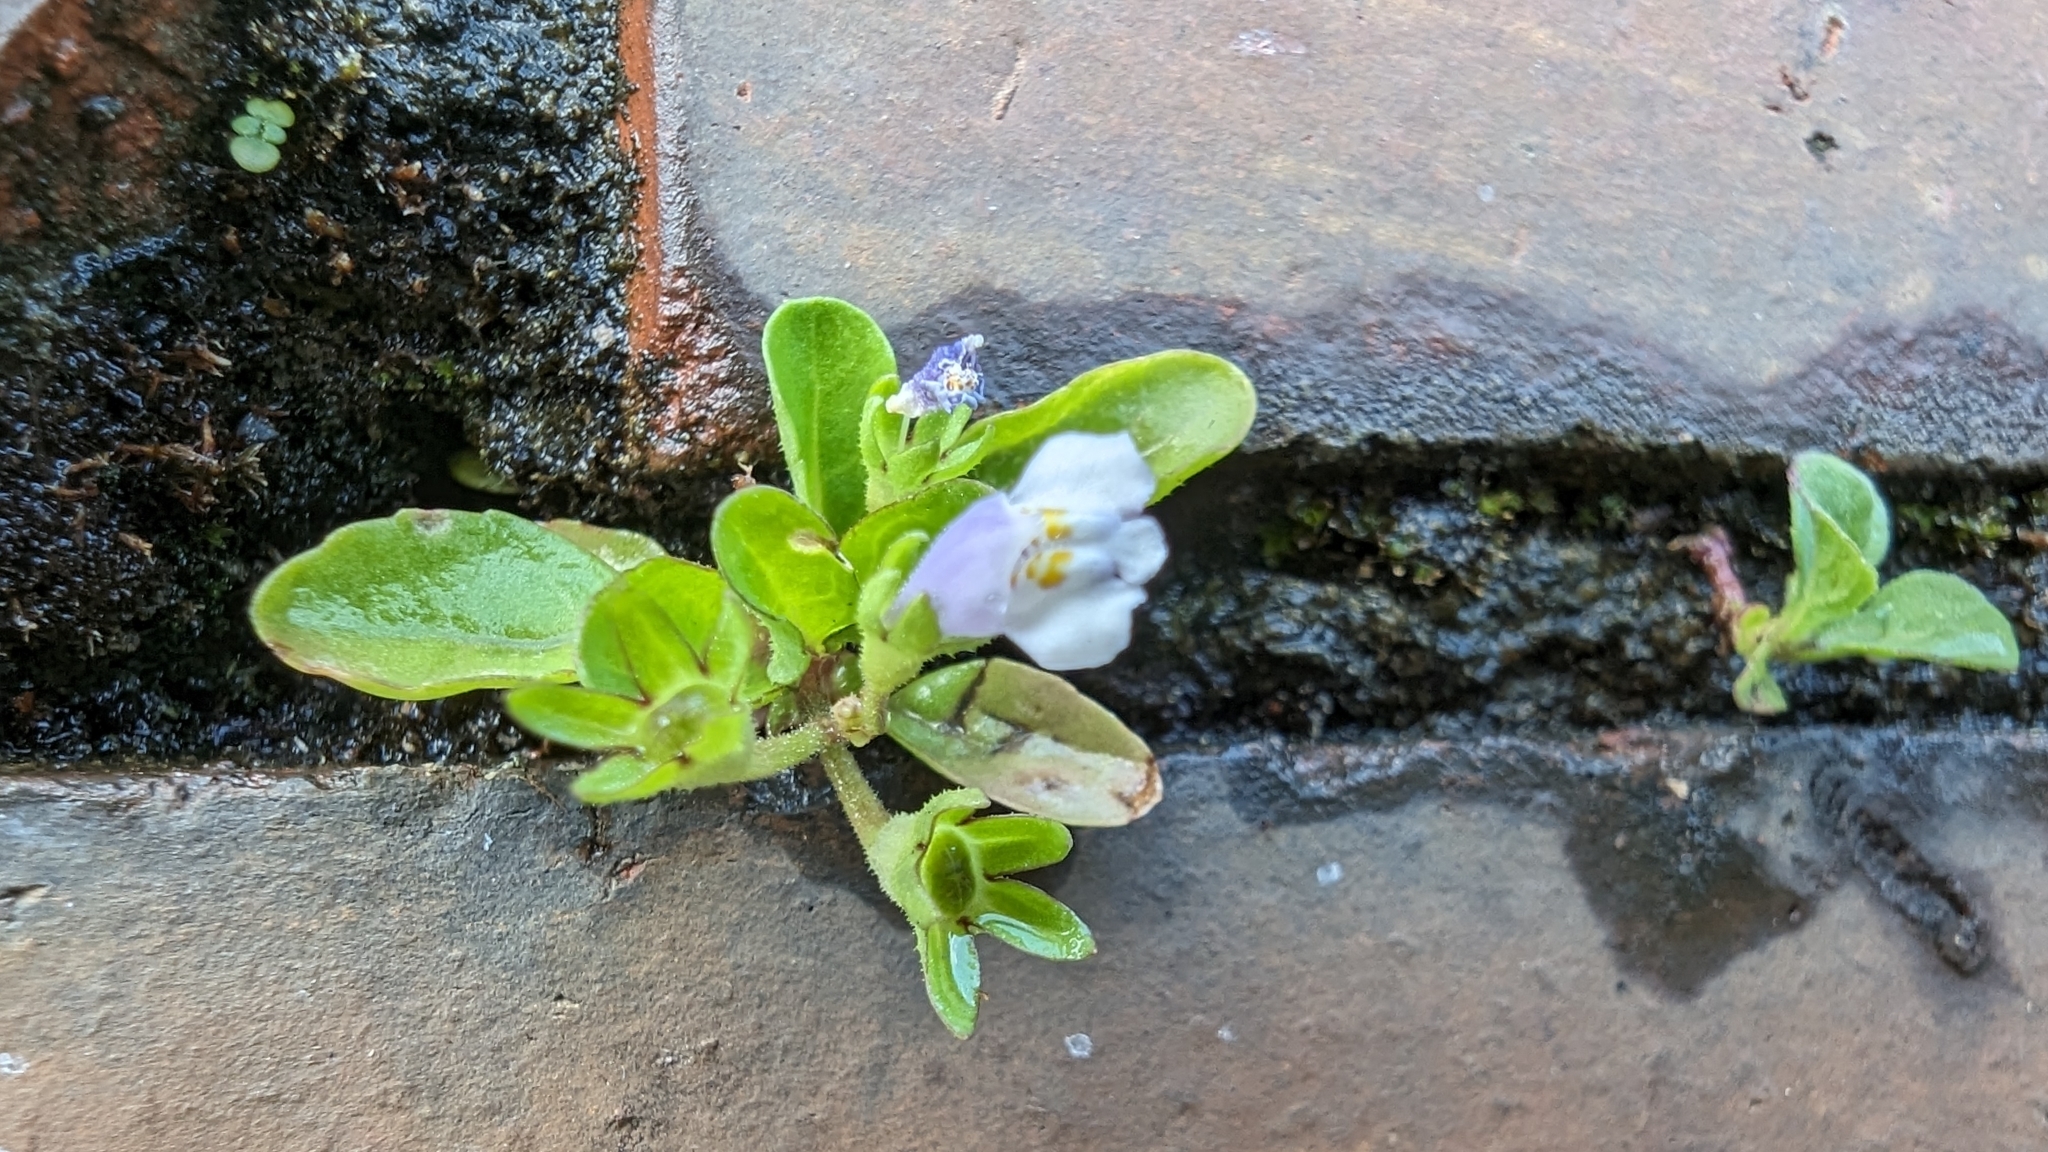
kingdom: Plantae
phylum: Tracheophyta
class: Magnoliopsida
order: Lamiales
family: Mazaceae
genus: Mazus
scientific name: Mazus pumilus
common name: Japanese mazus
